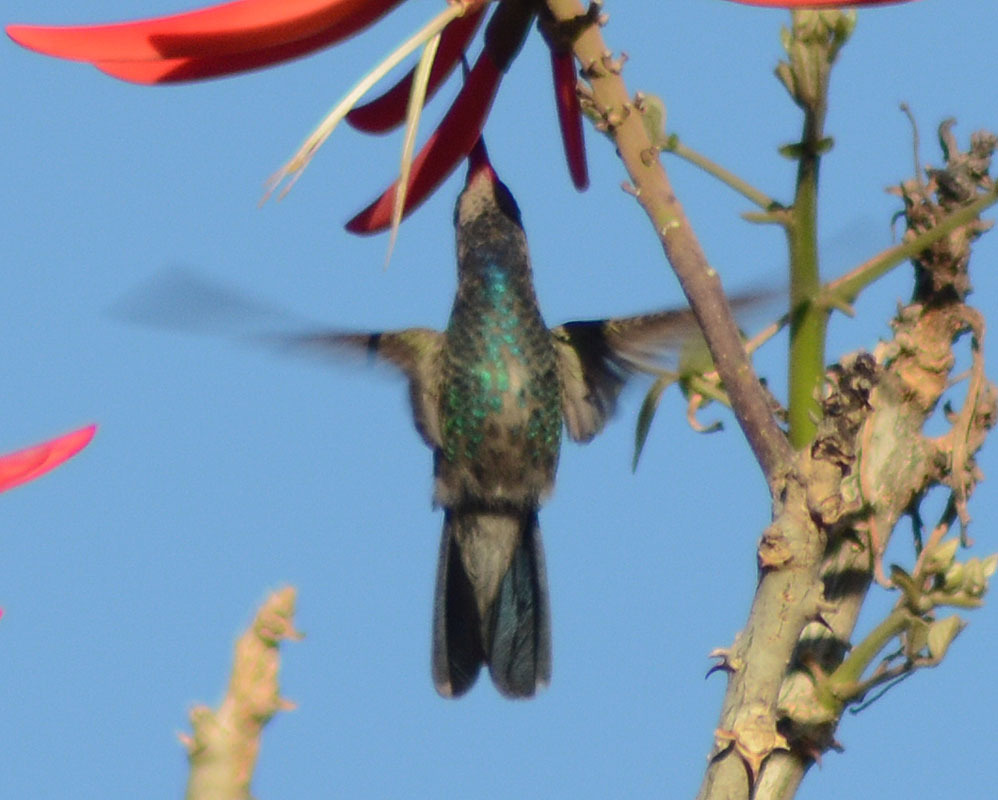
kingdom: Animalia
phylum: Chordata
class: Aves
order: Apodiformes
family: Trochilidae
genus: Cynanthus
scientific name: Cynanthus latirostris
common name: Broad-billed hummingbird
